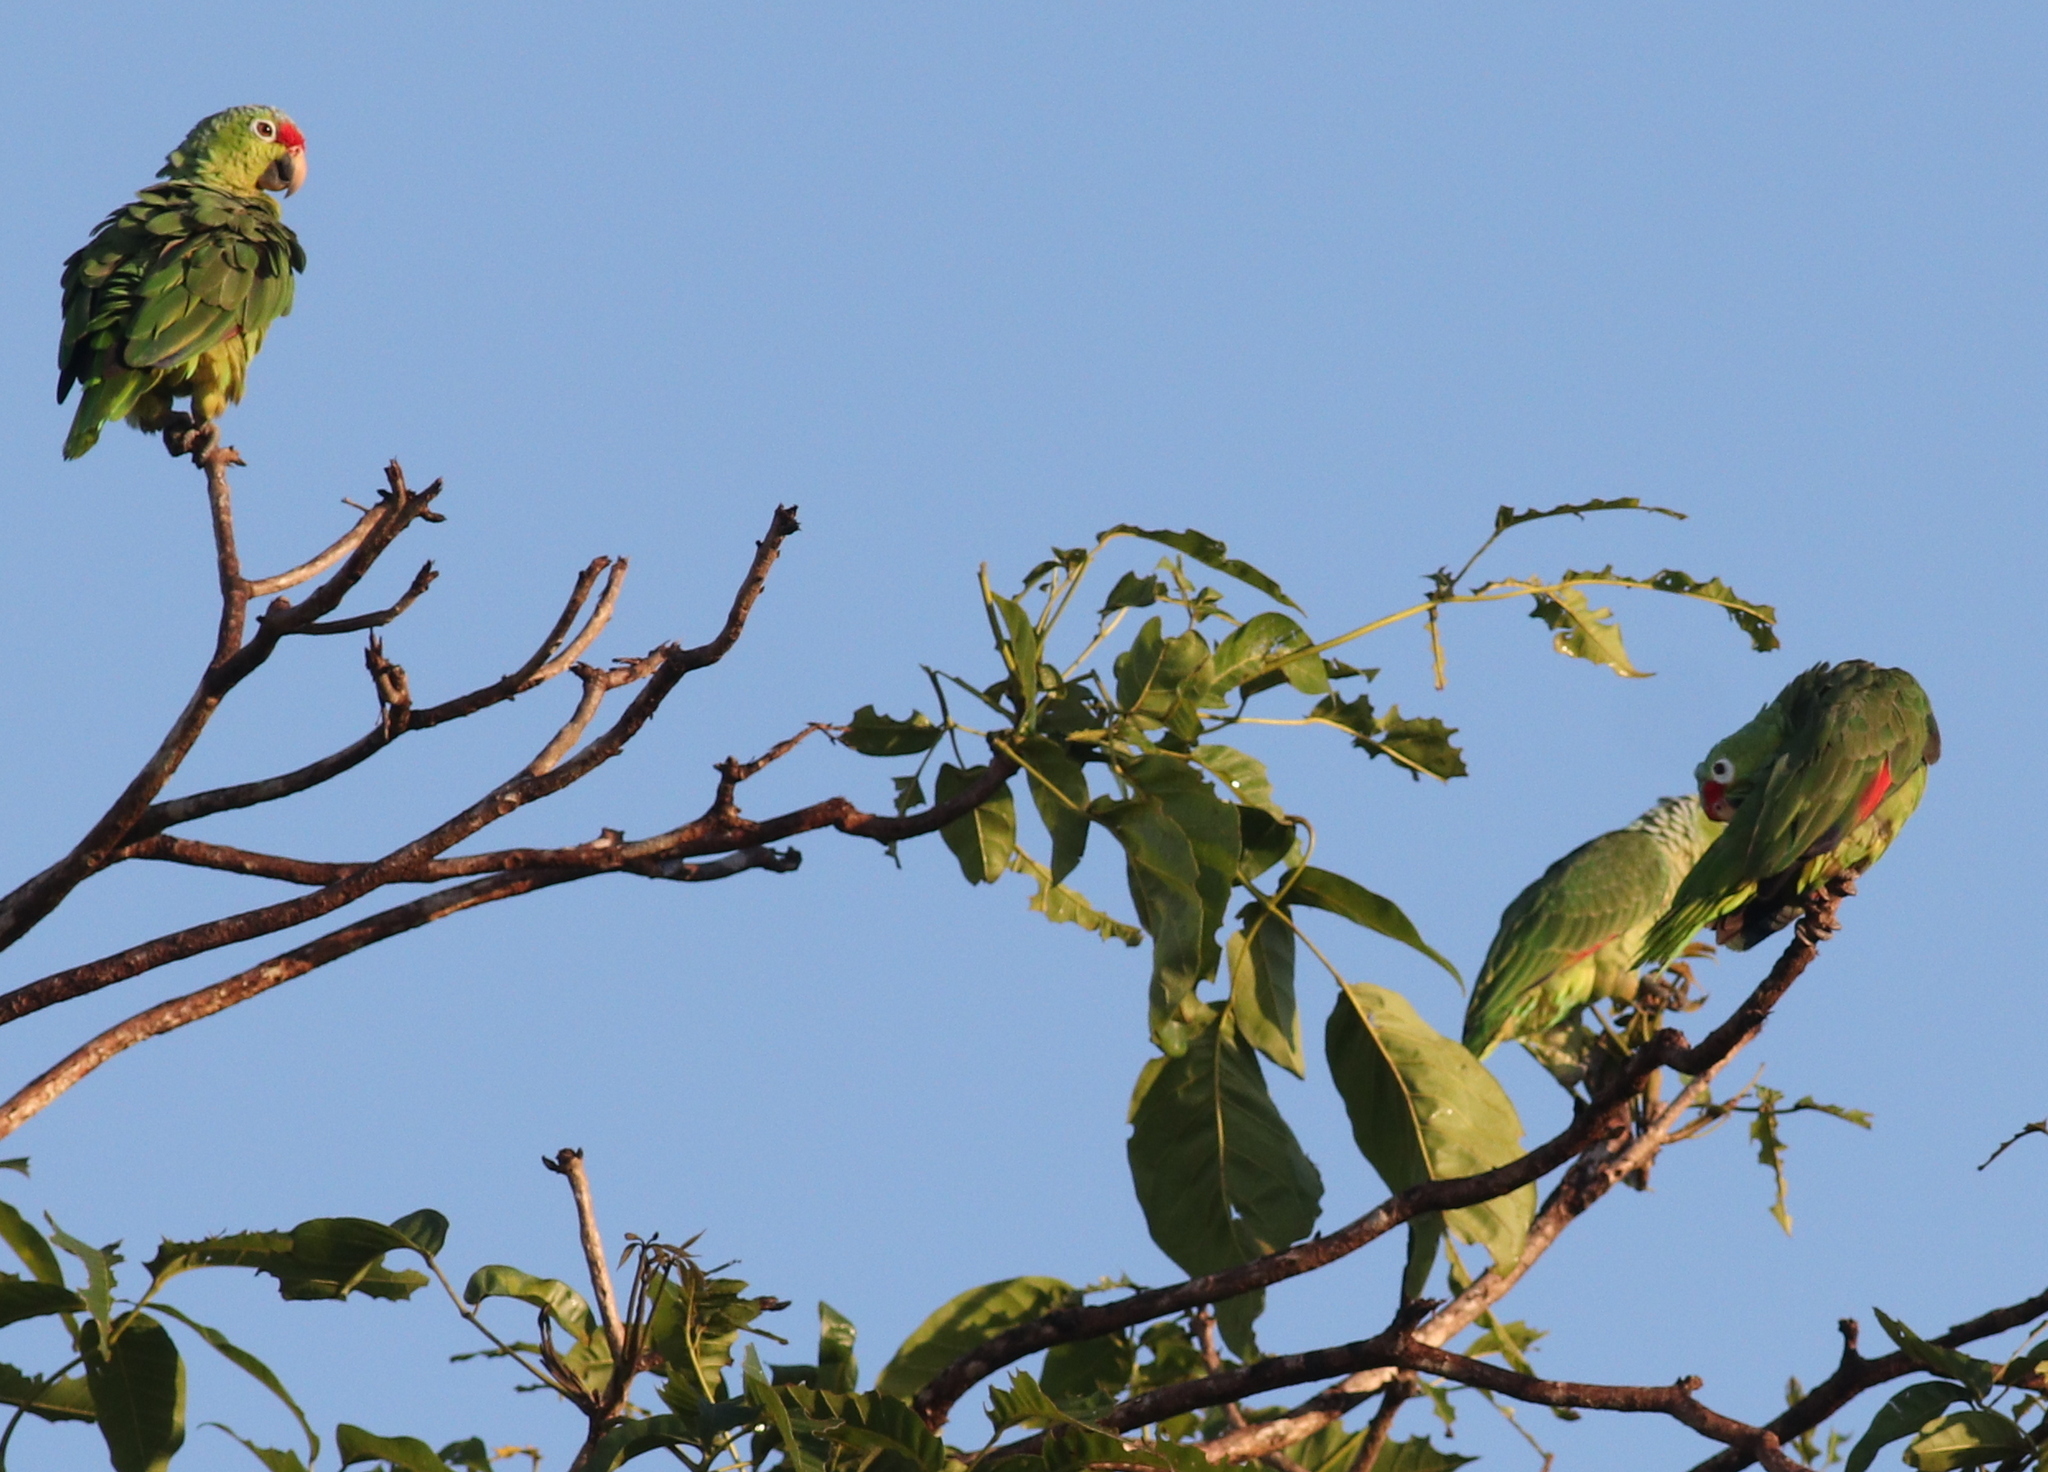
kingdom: Animalia
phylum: Chordata
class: Aves
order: Psittaciformes
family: Psittacidae
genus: Amazona
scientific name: Amazona autumnalis
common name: Red-lored amazon
